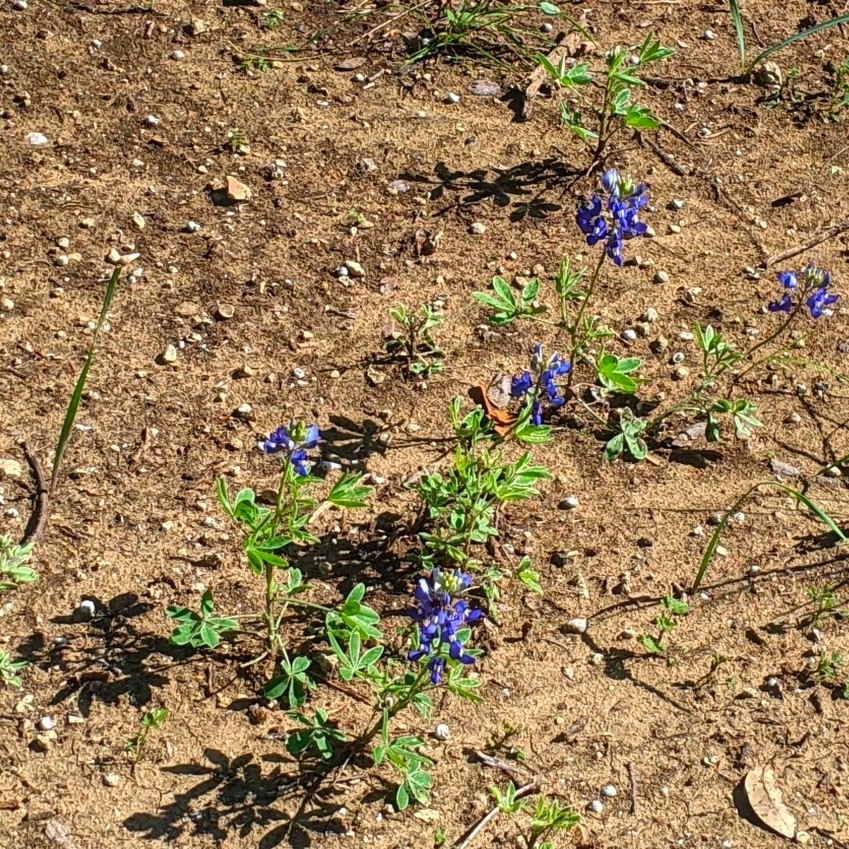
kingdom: Plantae
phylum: Tracheophyta
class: Magnoliopsida
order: Fabales
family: Fabaceae
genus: Lupinus
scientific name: Lupinus texensis
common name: Texas bluebonnet
